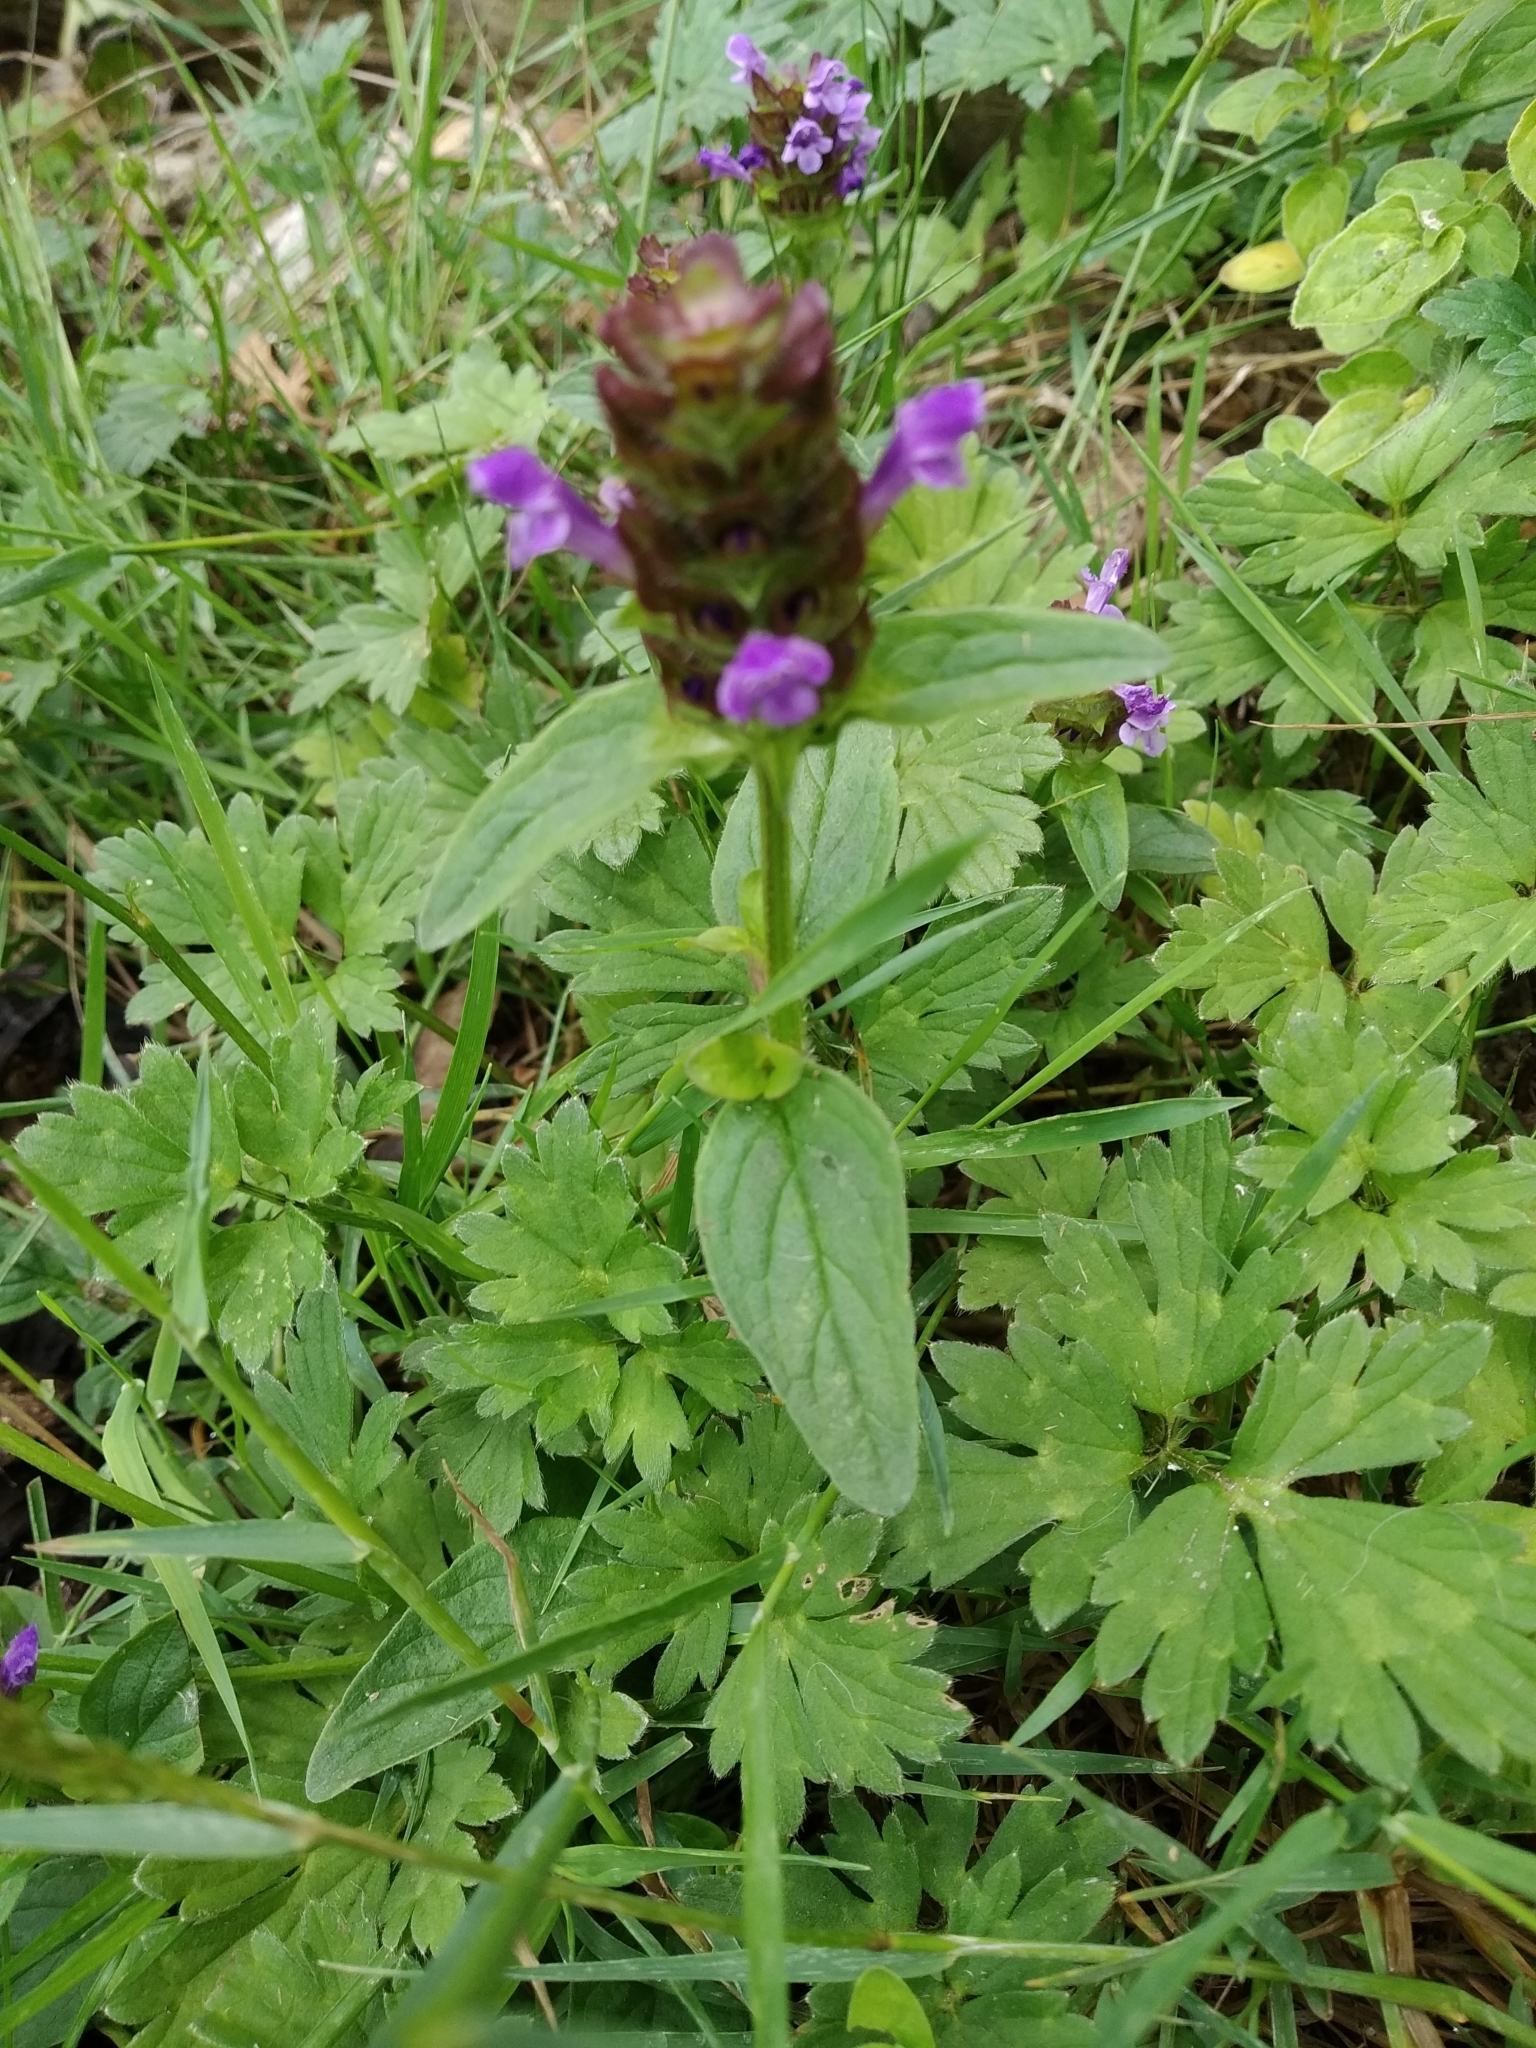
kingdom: Plantae
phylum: Tracheophyta
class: Magnoliopsida
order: Lamiales
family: Lamiaceae
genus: Prunella
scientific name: Prunella vulgaris
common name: Heal-all
